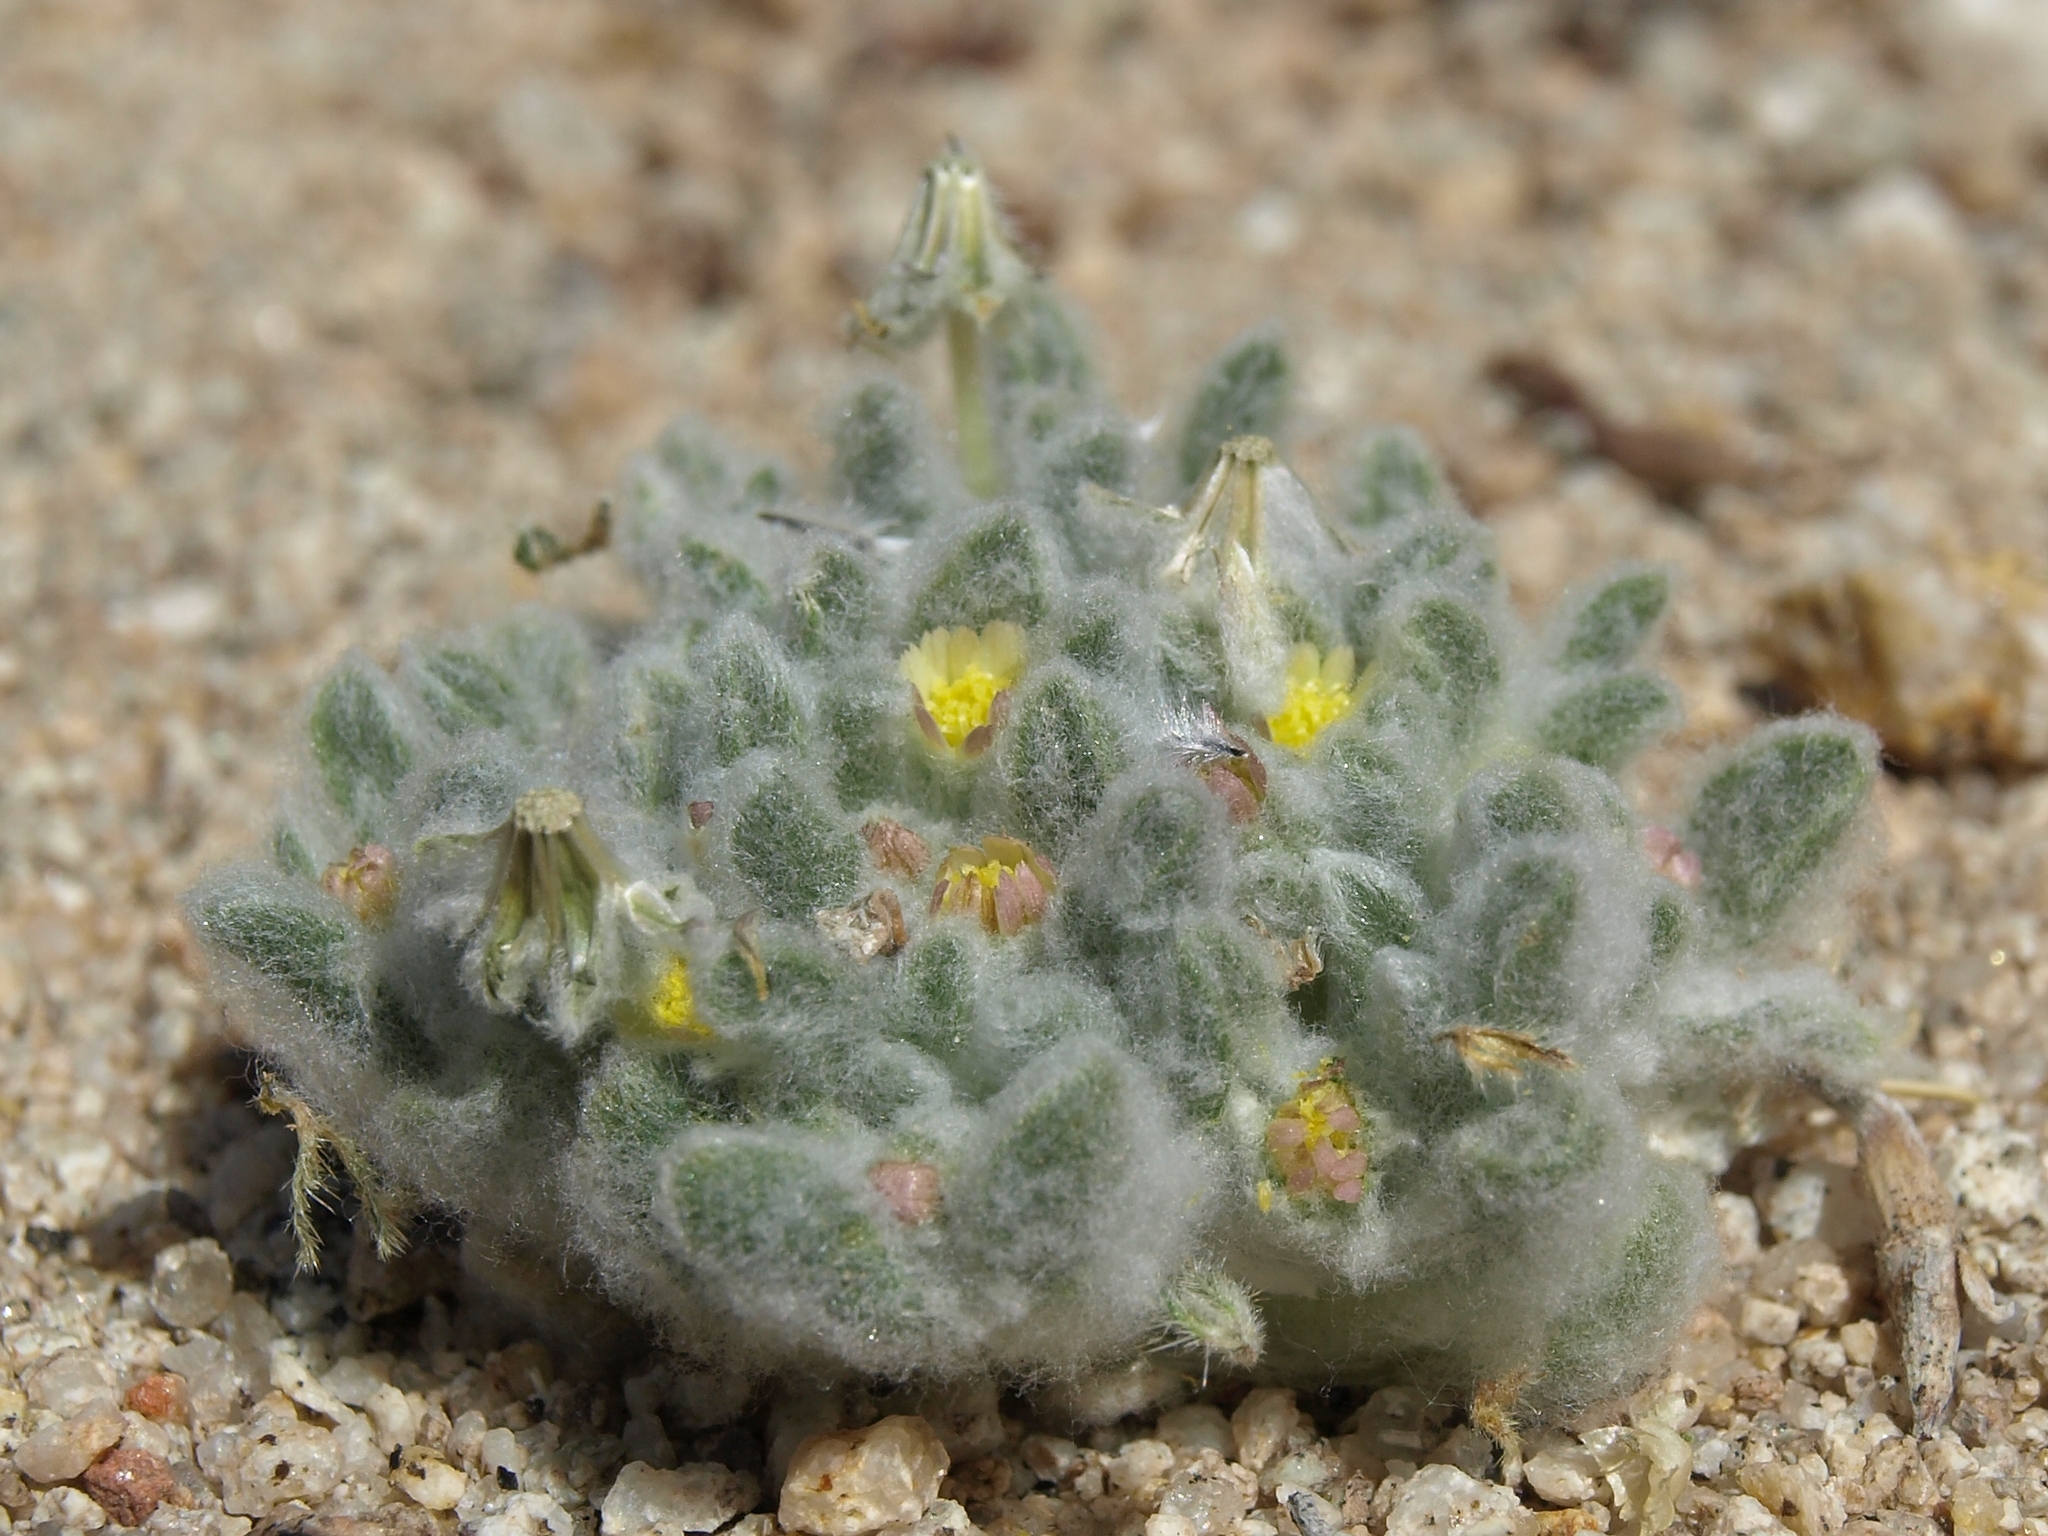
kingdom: Plantae
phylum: Tracheophyta
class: Magnoliopsida
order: Asterales
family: Asteraceae
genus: Eatonella
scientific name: Eatonella nivea
